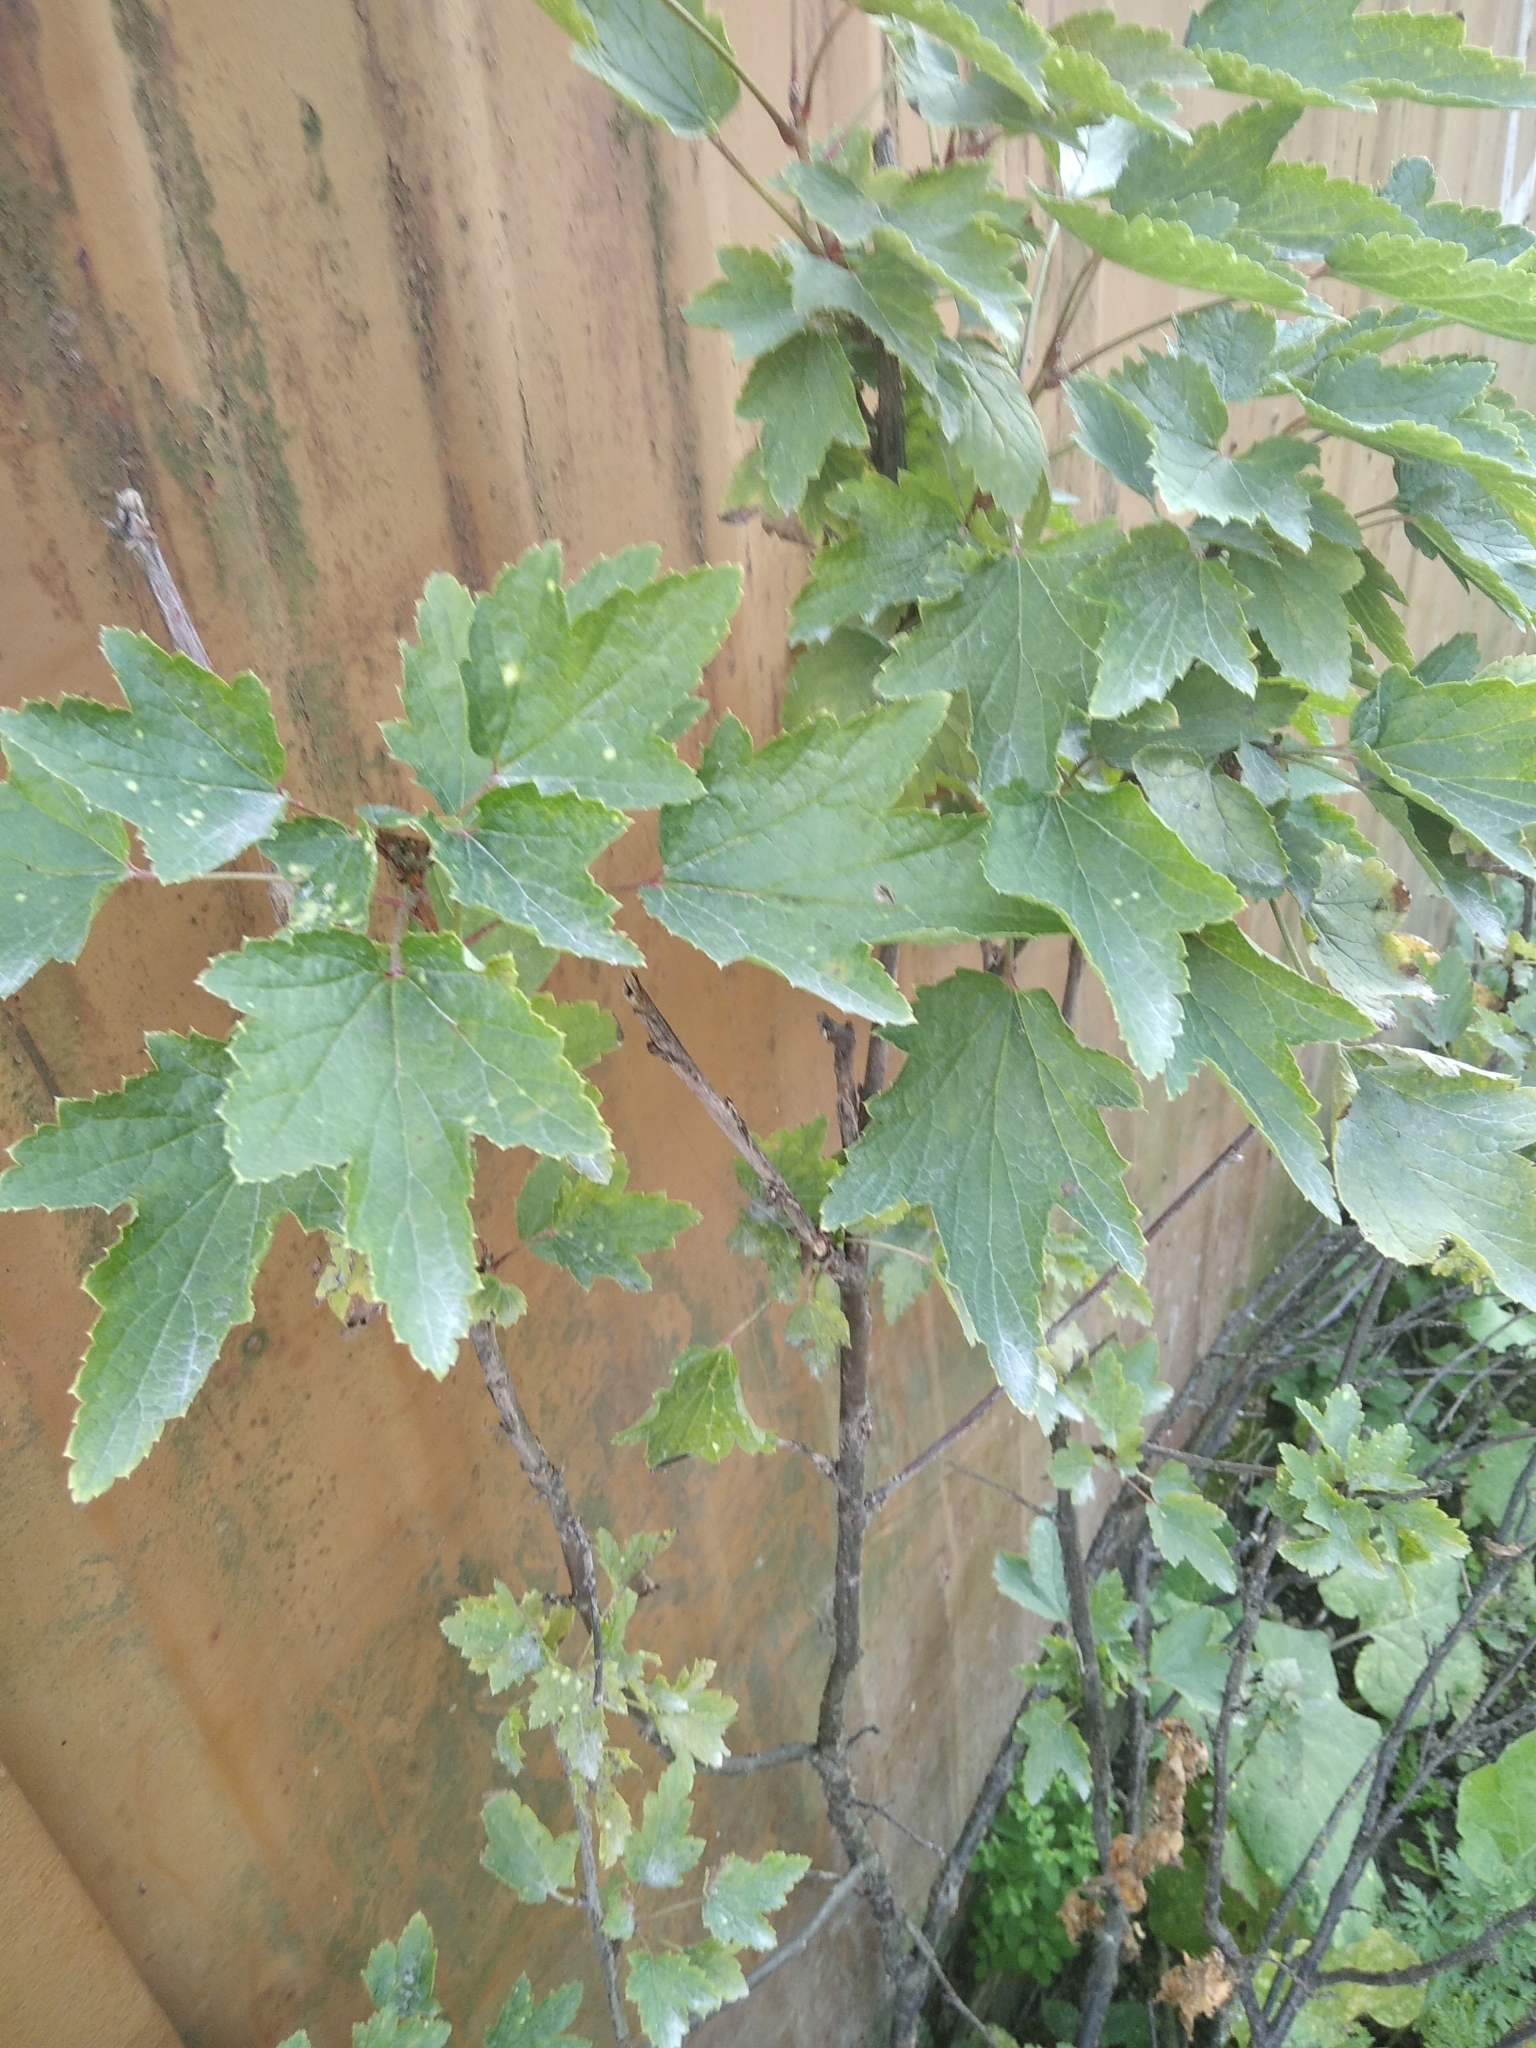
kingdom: Plantae
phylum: Tracheophyta
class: Magnoliopsida
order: Saxifragales
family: Grossulariaceae
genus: Ribes
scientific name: Ribes rubrum
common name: Red currant
